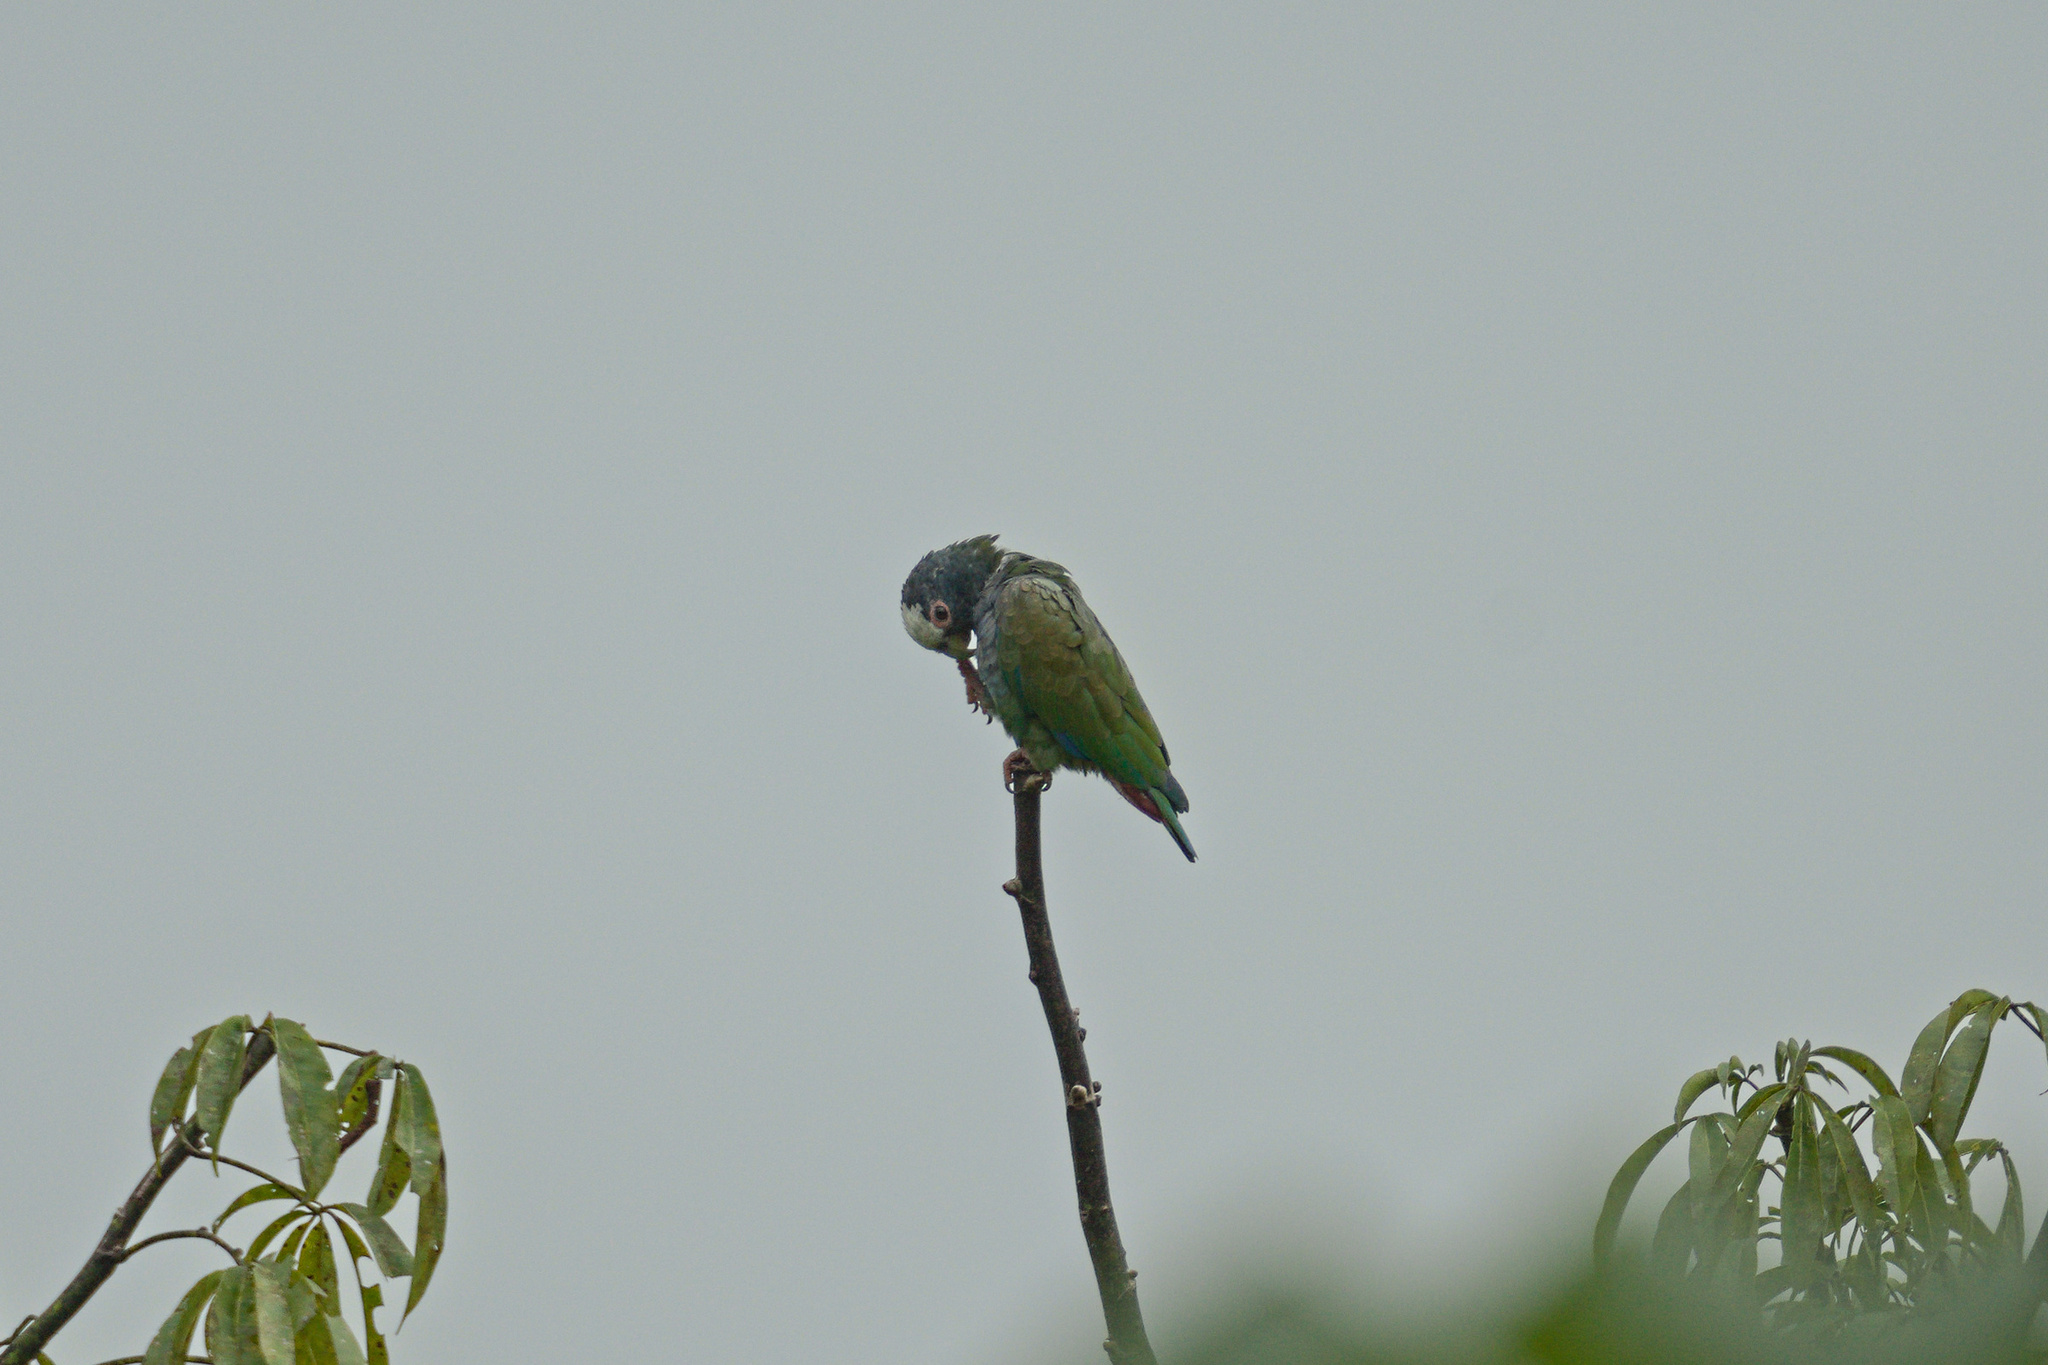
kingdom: Animalia
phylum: Chordata
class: Aves
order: Psittaciformes
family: Psittacidae
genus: Pionus
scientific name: Pionus senilis
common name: White-crowned parrot
